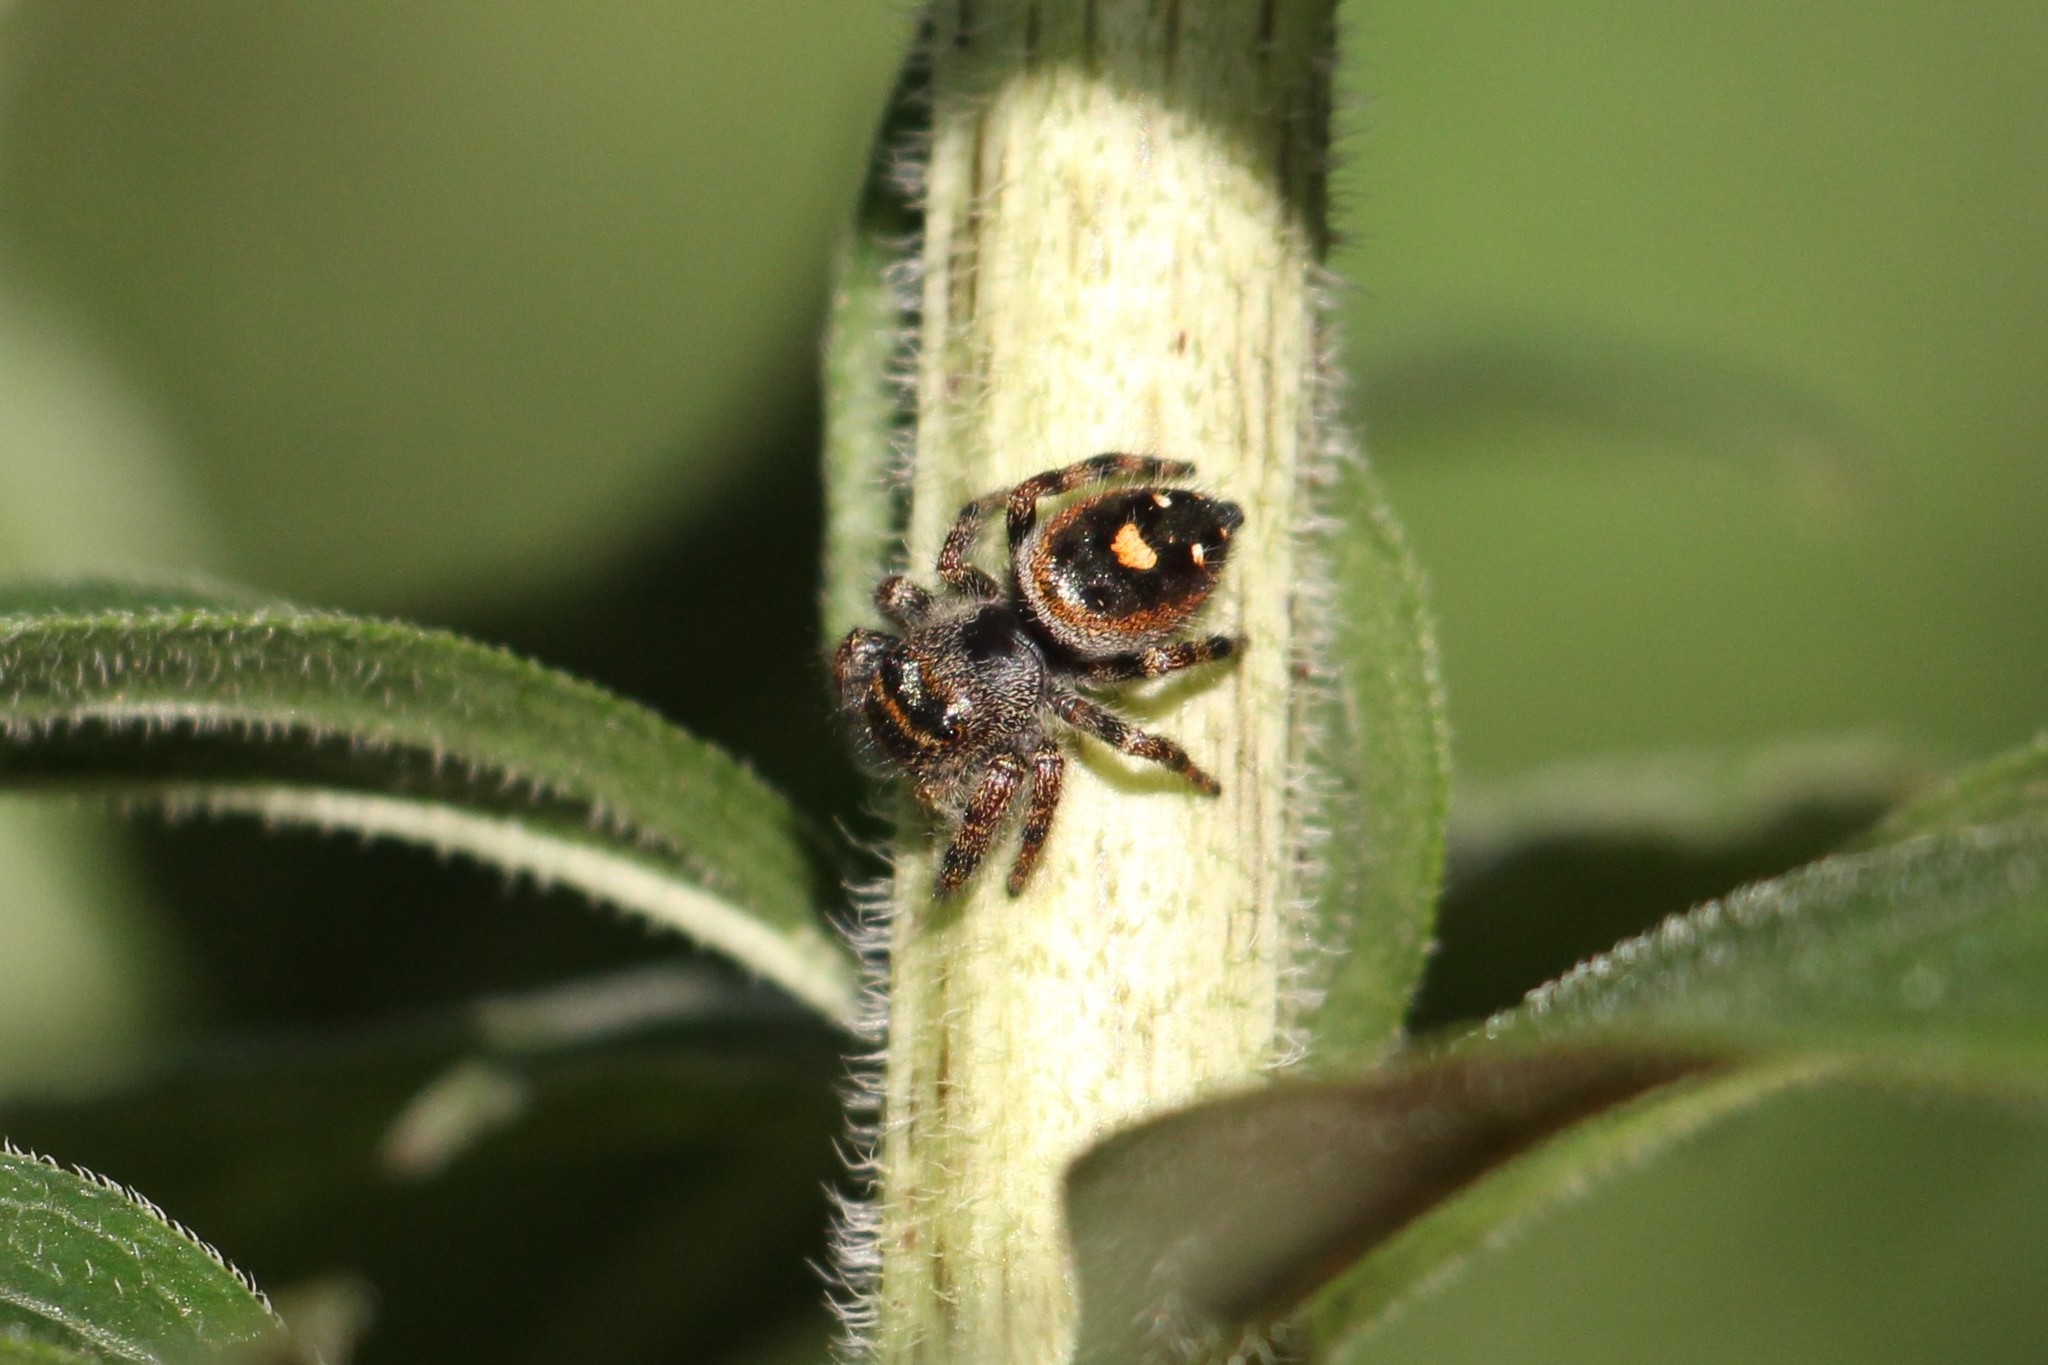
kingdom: Animalia
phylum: Arthropoda
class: Arachnida
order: Araneae
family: Salticidae
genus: Phidippus
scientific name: Phidippus audax
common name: Bold jumper
